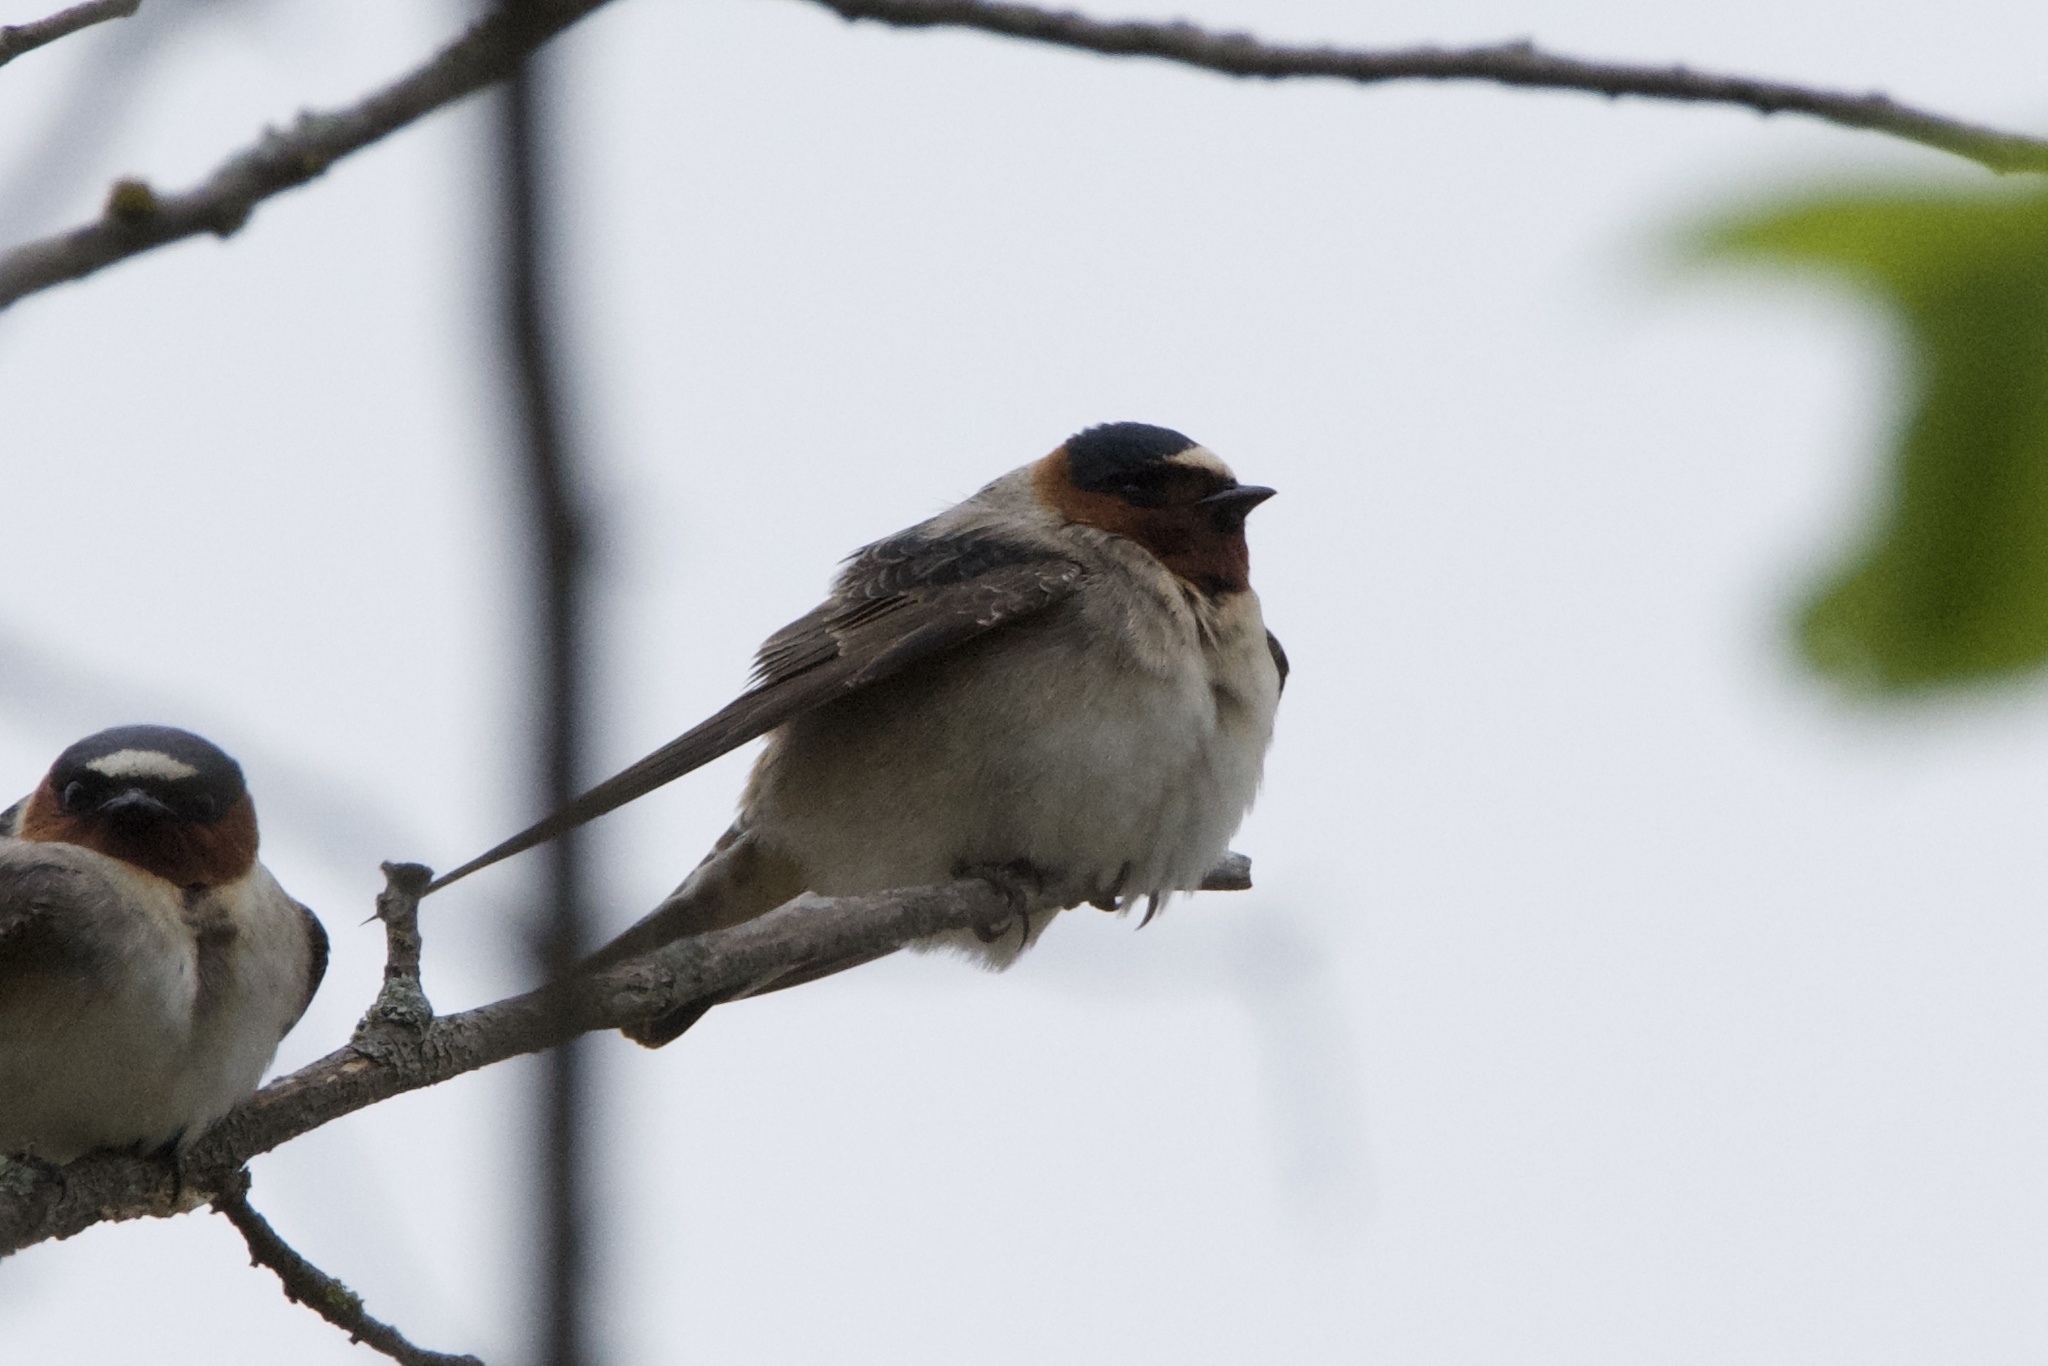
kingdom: Animalia
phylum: Chordata
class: Aves
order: Passeriformes
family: Hirundinidae
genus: Petrochelidon
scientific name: Petrochelidon pyrrhonota
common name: American cliff swallow
